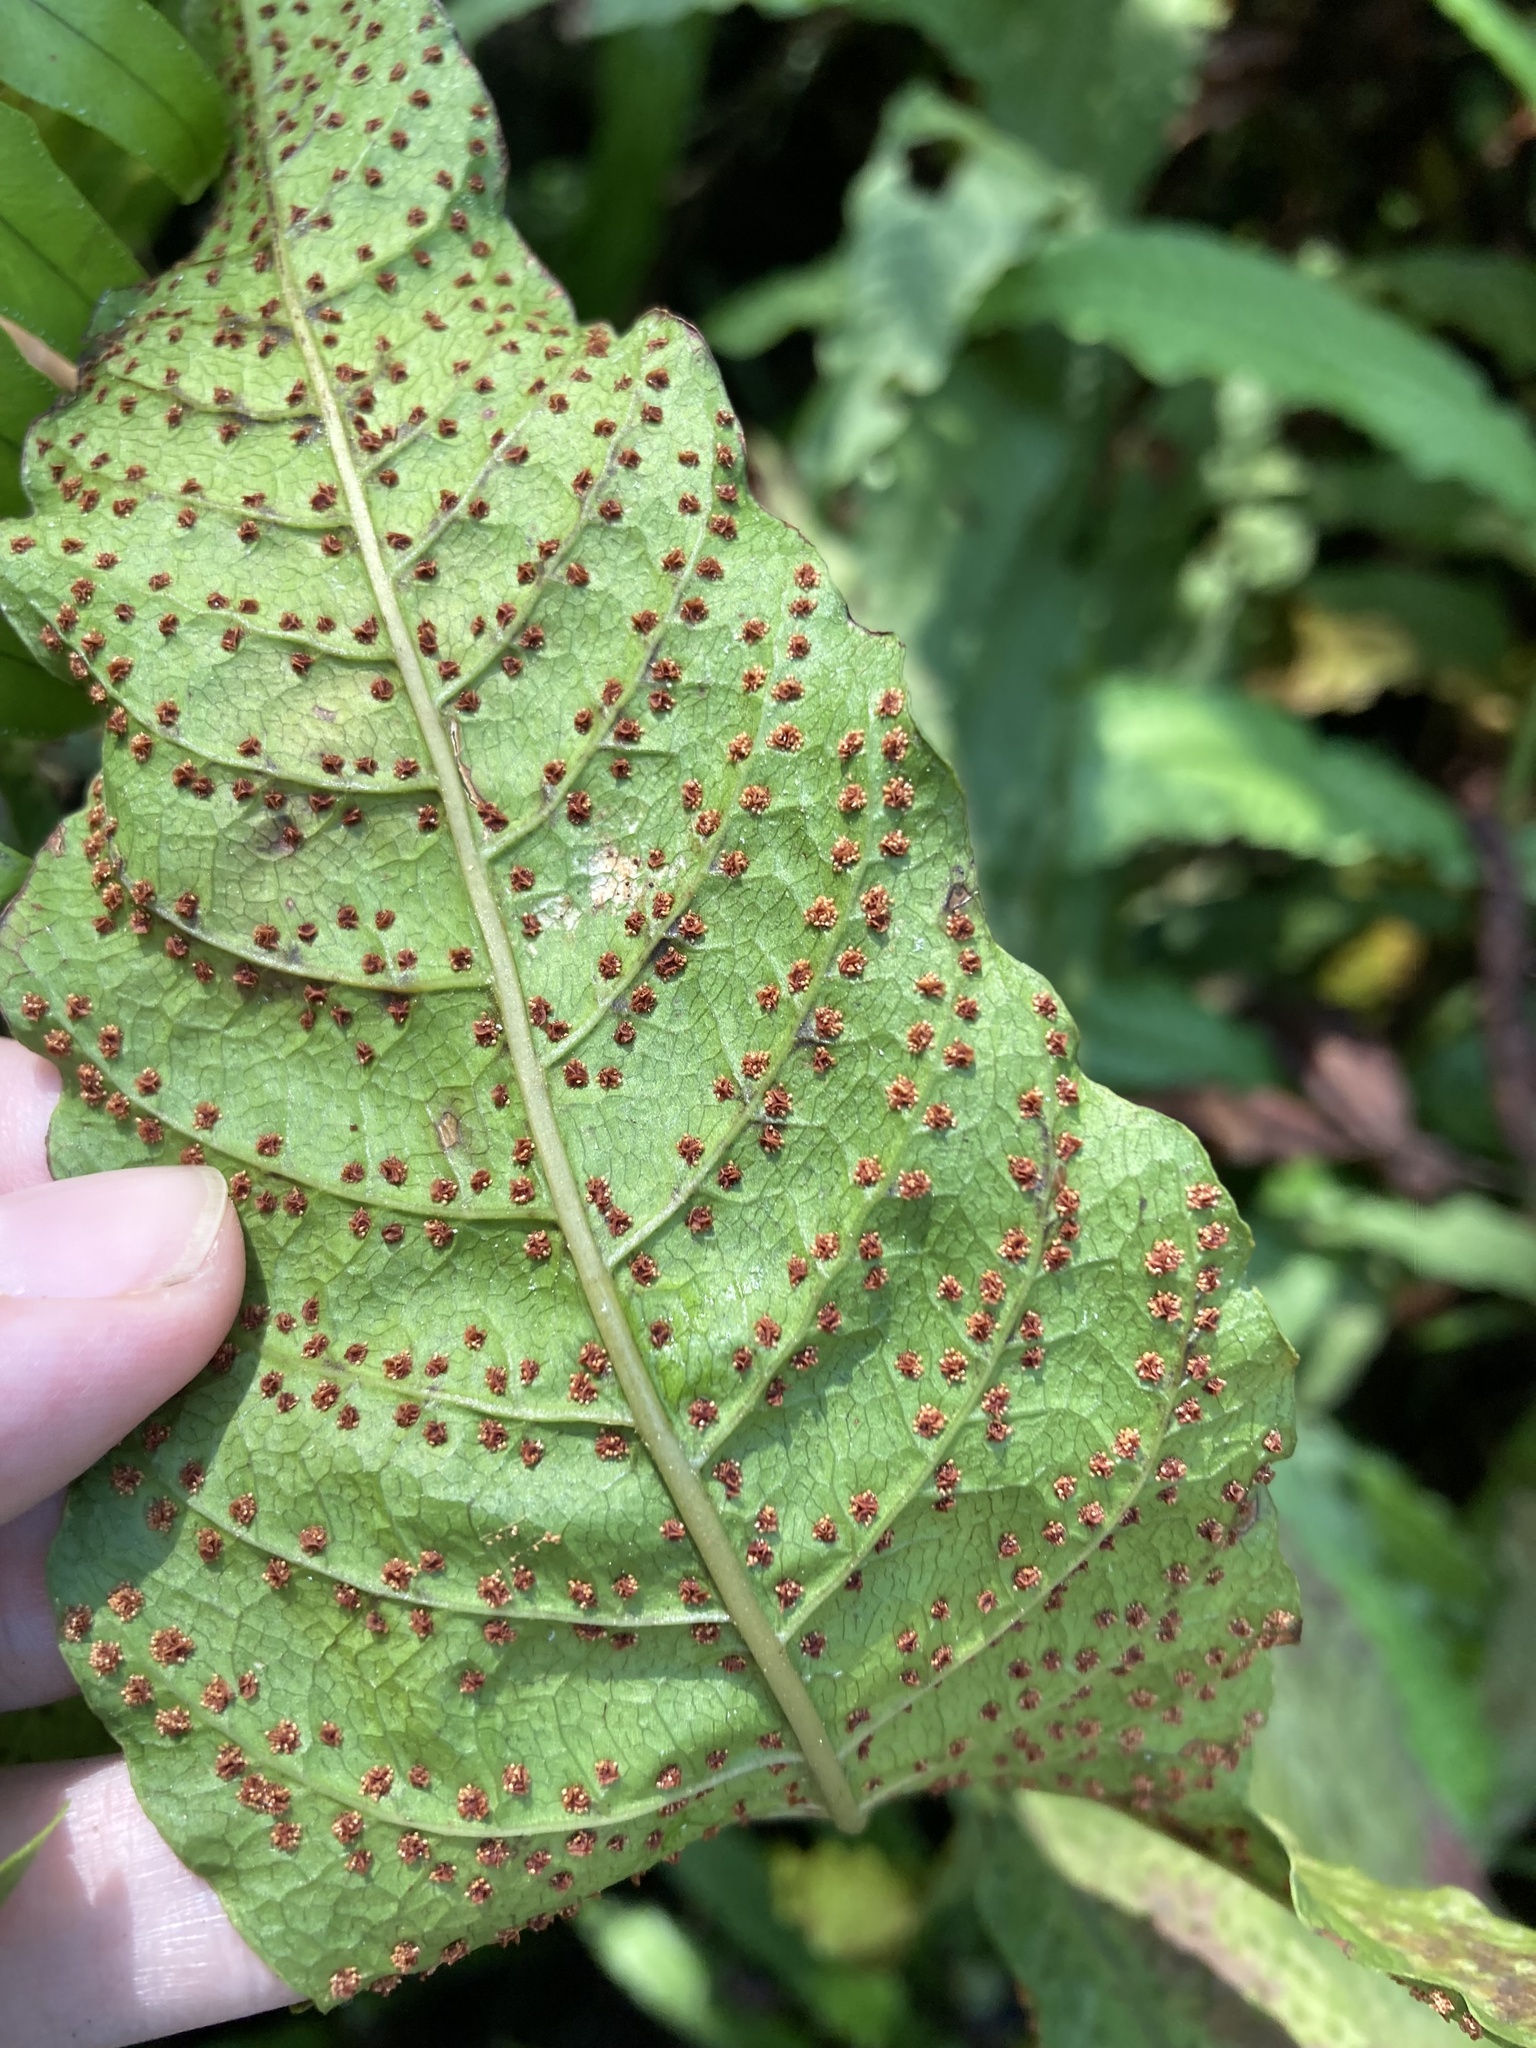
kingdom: Plantae
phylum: Tracheophyta
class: Polypodiopsida
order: Polypodiales
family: Tectariaceae
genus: Tectaria
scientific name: Tectaria incisa
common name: Incised halberd fern
